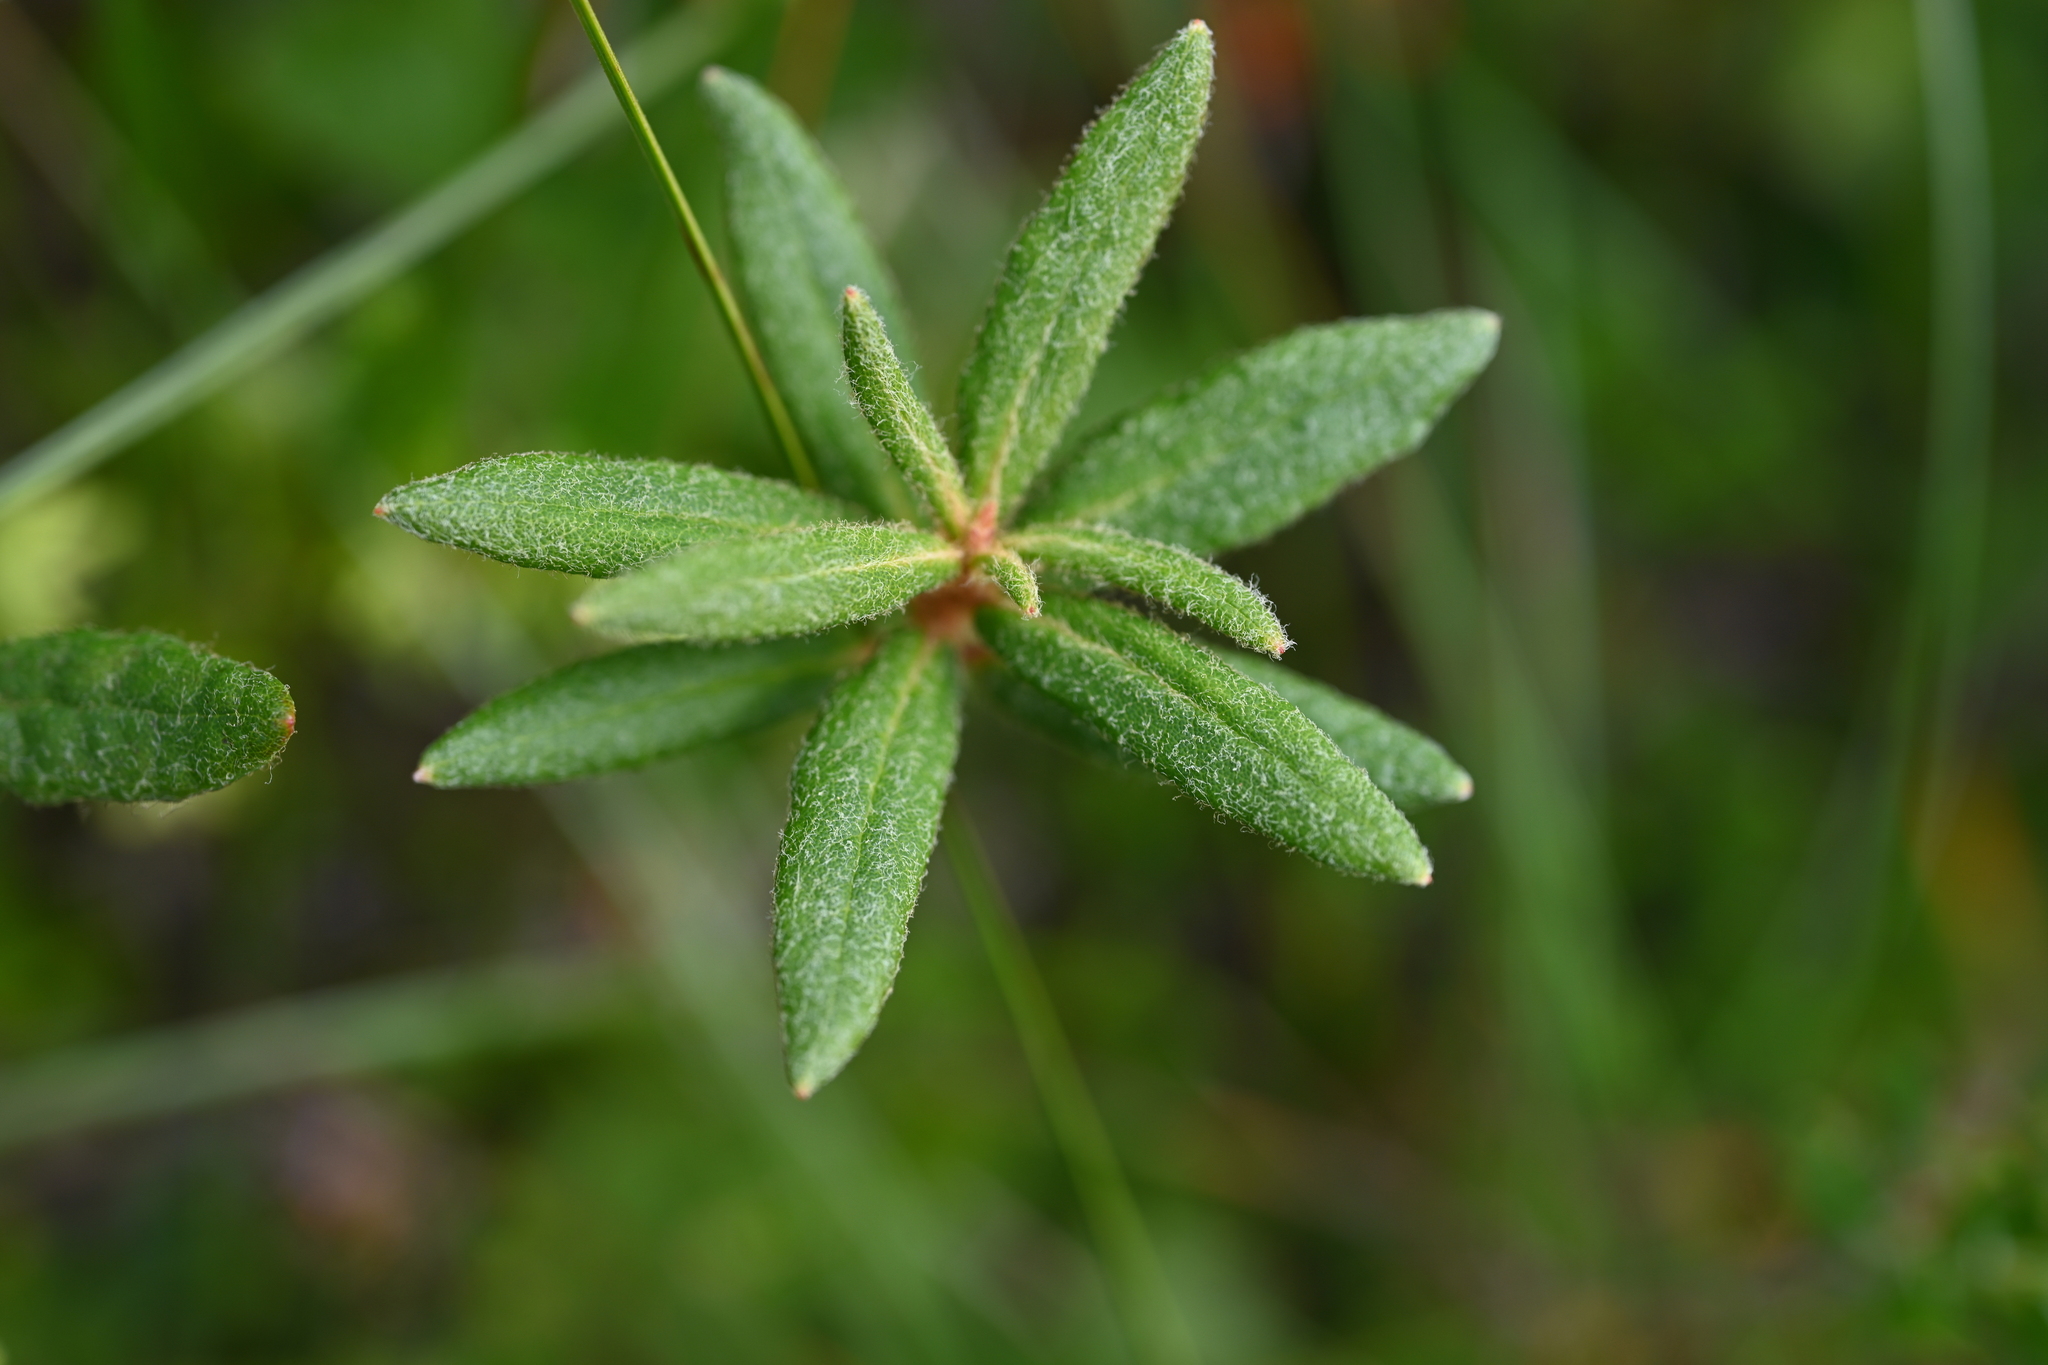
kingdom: Plantae
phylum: Tracheophyta
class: Magnoliopsida
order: Ericales
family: Ericaceae
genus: Rhododendron
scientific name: Rhododendron groenlandicum
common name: Bog labrador tea
